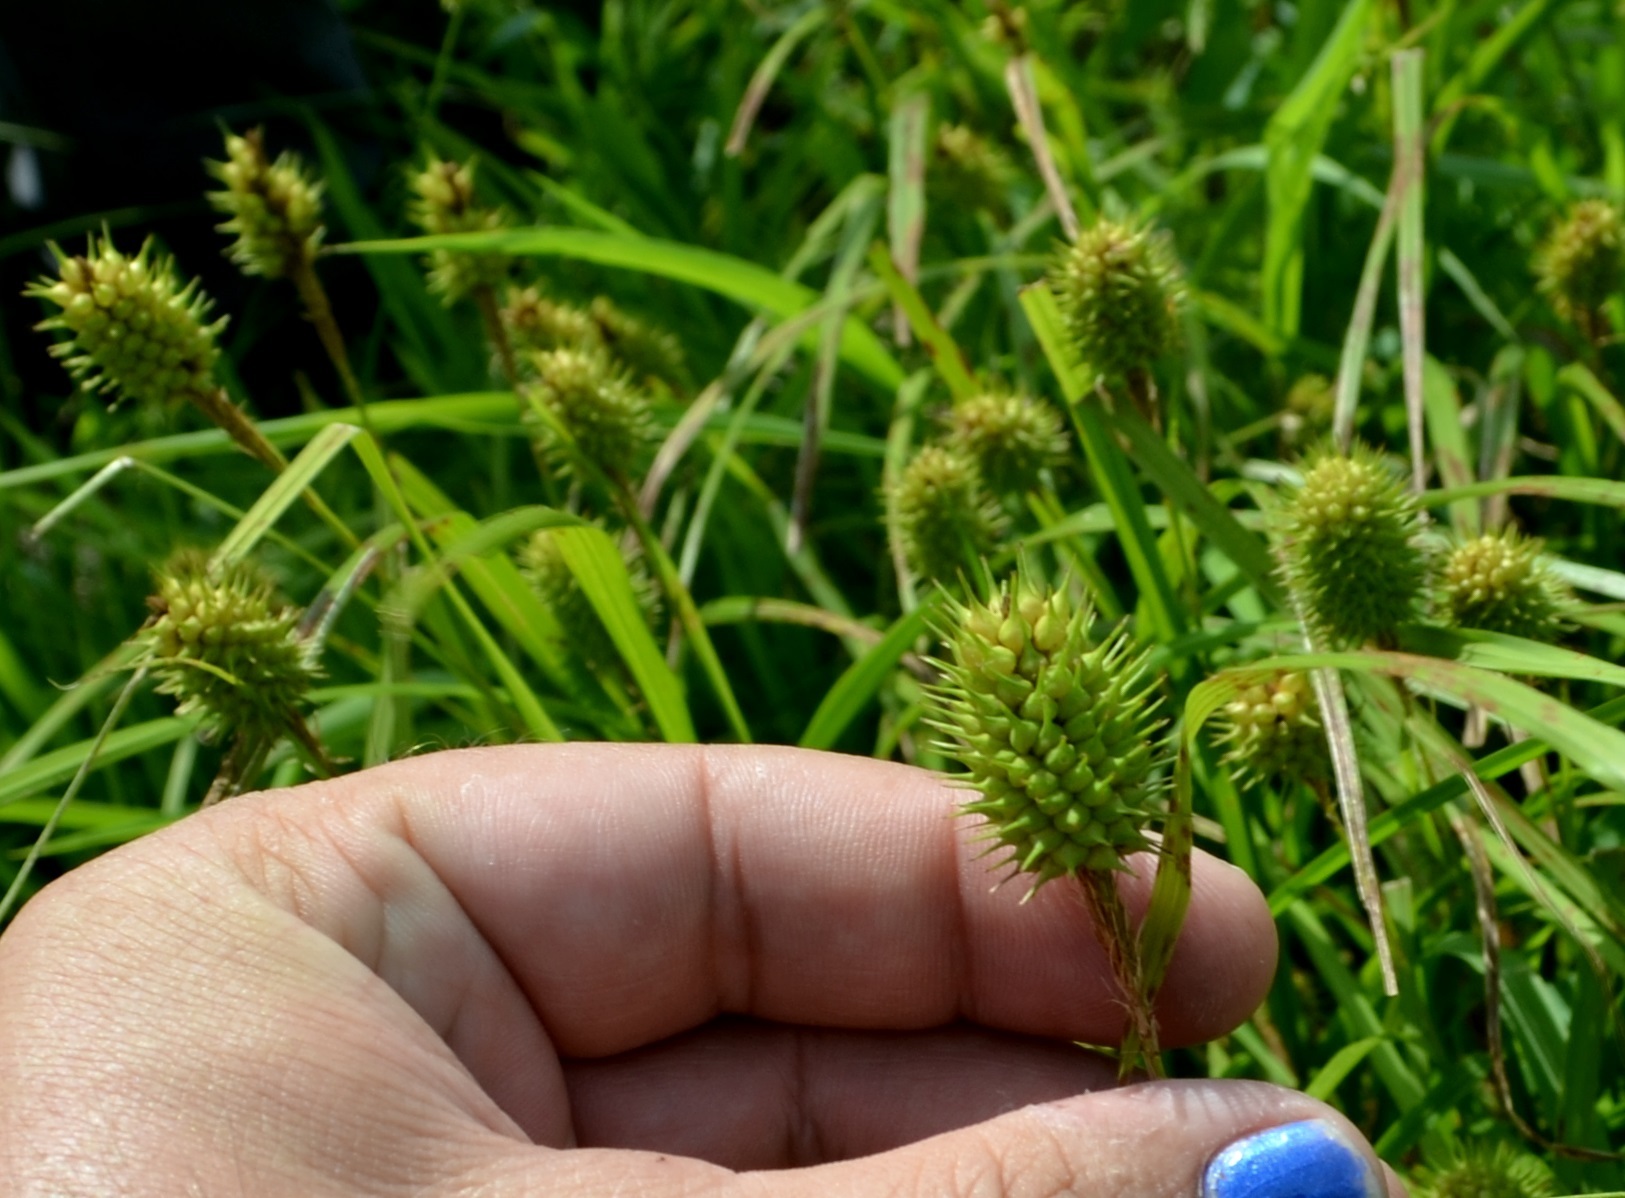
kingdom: Plantae
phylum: Tracheophyta
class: Liliopsida
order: Poales
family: Cyperaceae
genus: Carex
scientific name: Carex squarrosa
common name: Narrow-leaved cattail sedge
